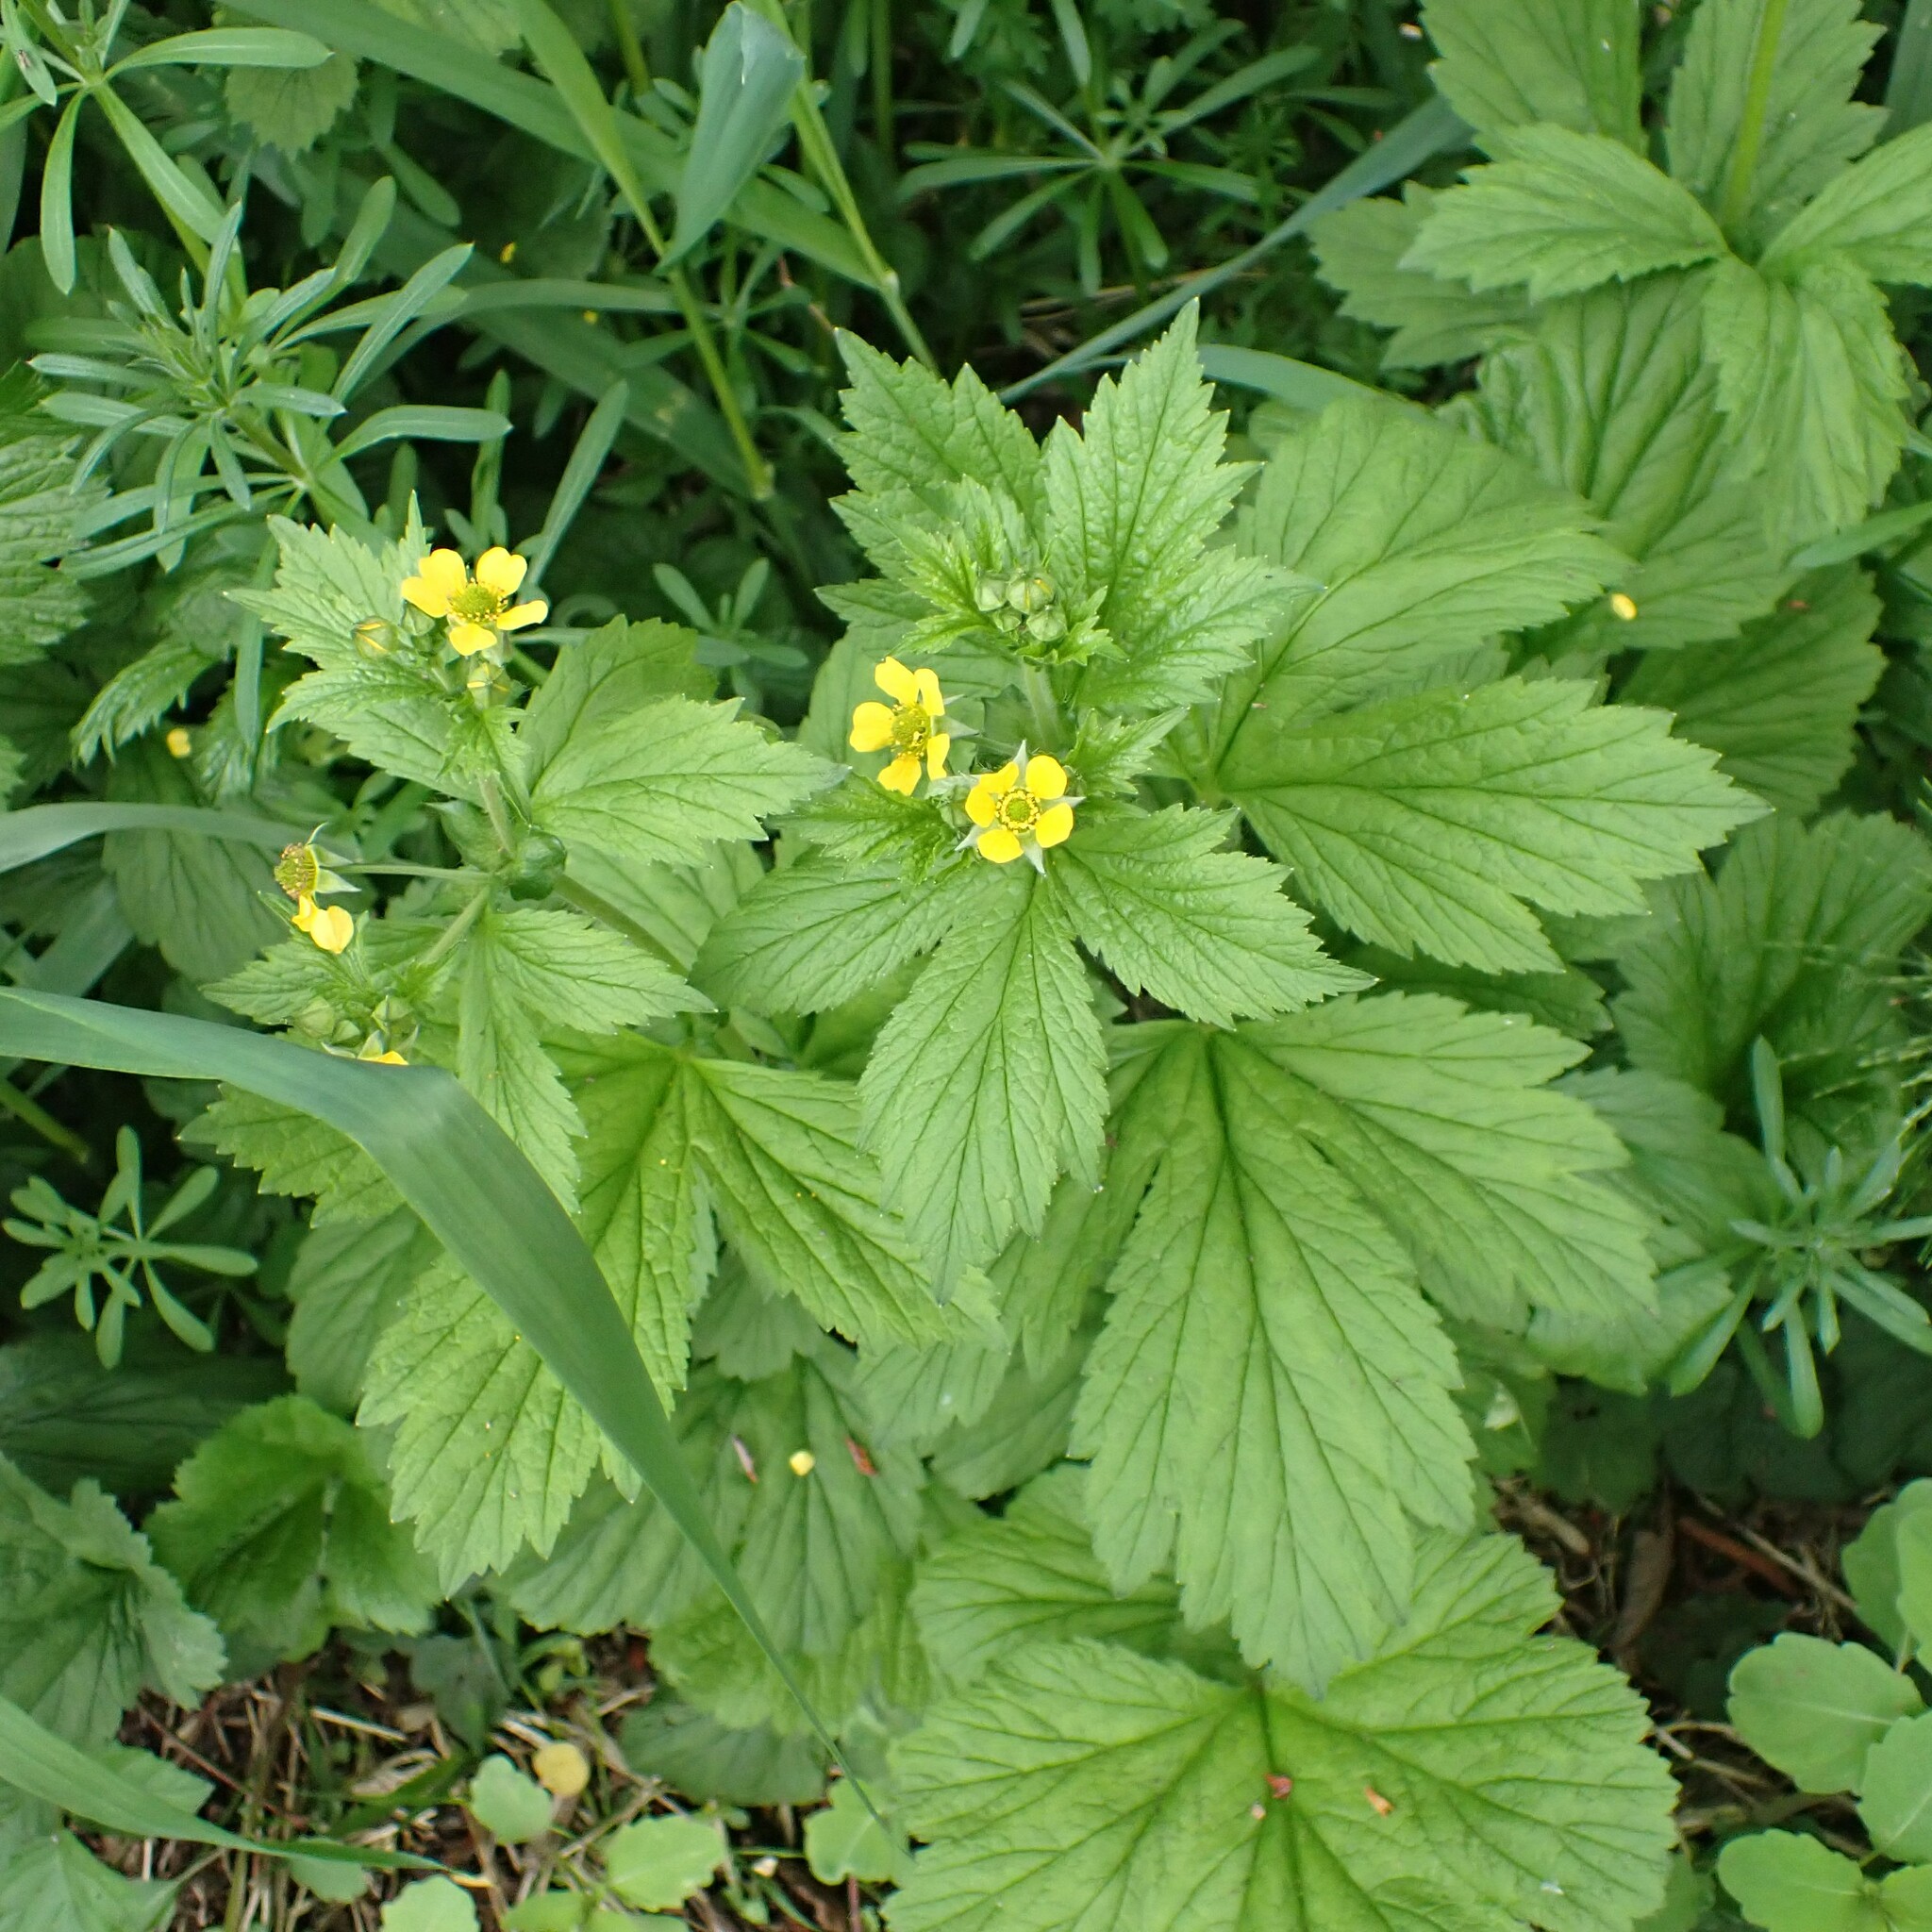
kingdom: Plantae
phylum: Tracheophyta
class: Magnoliopsida
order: Rosales
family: Rosaceae
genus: Geum
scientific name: Geum macrophyllum
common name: Large-leaved avens
